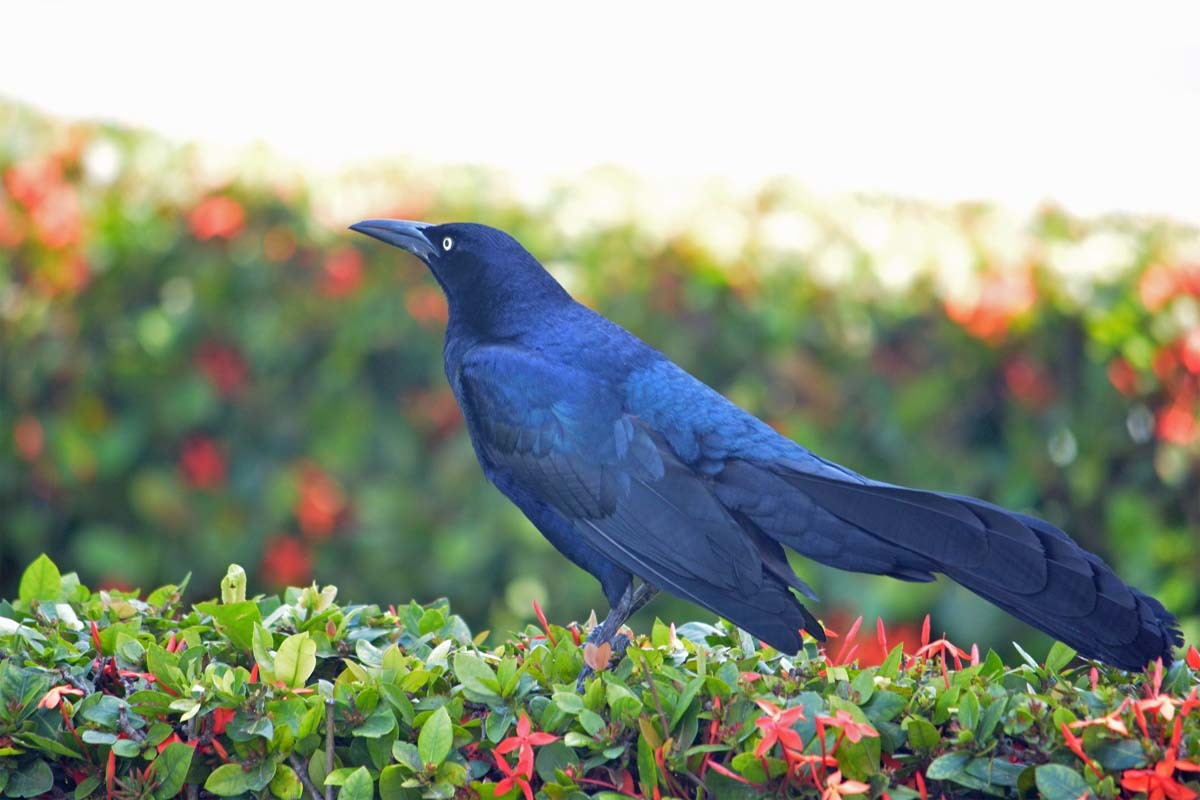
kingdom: Animalia
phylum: Chordata
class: Aves
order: Passeriformes
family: Icteridae
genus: Quiscalus
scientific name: Quiscalus mexicanus
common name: Great-tailed grackle
